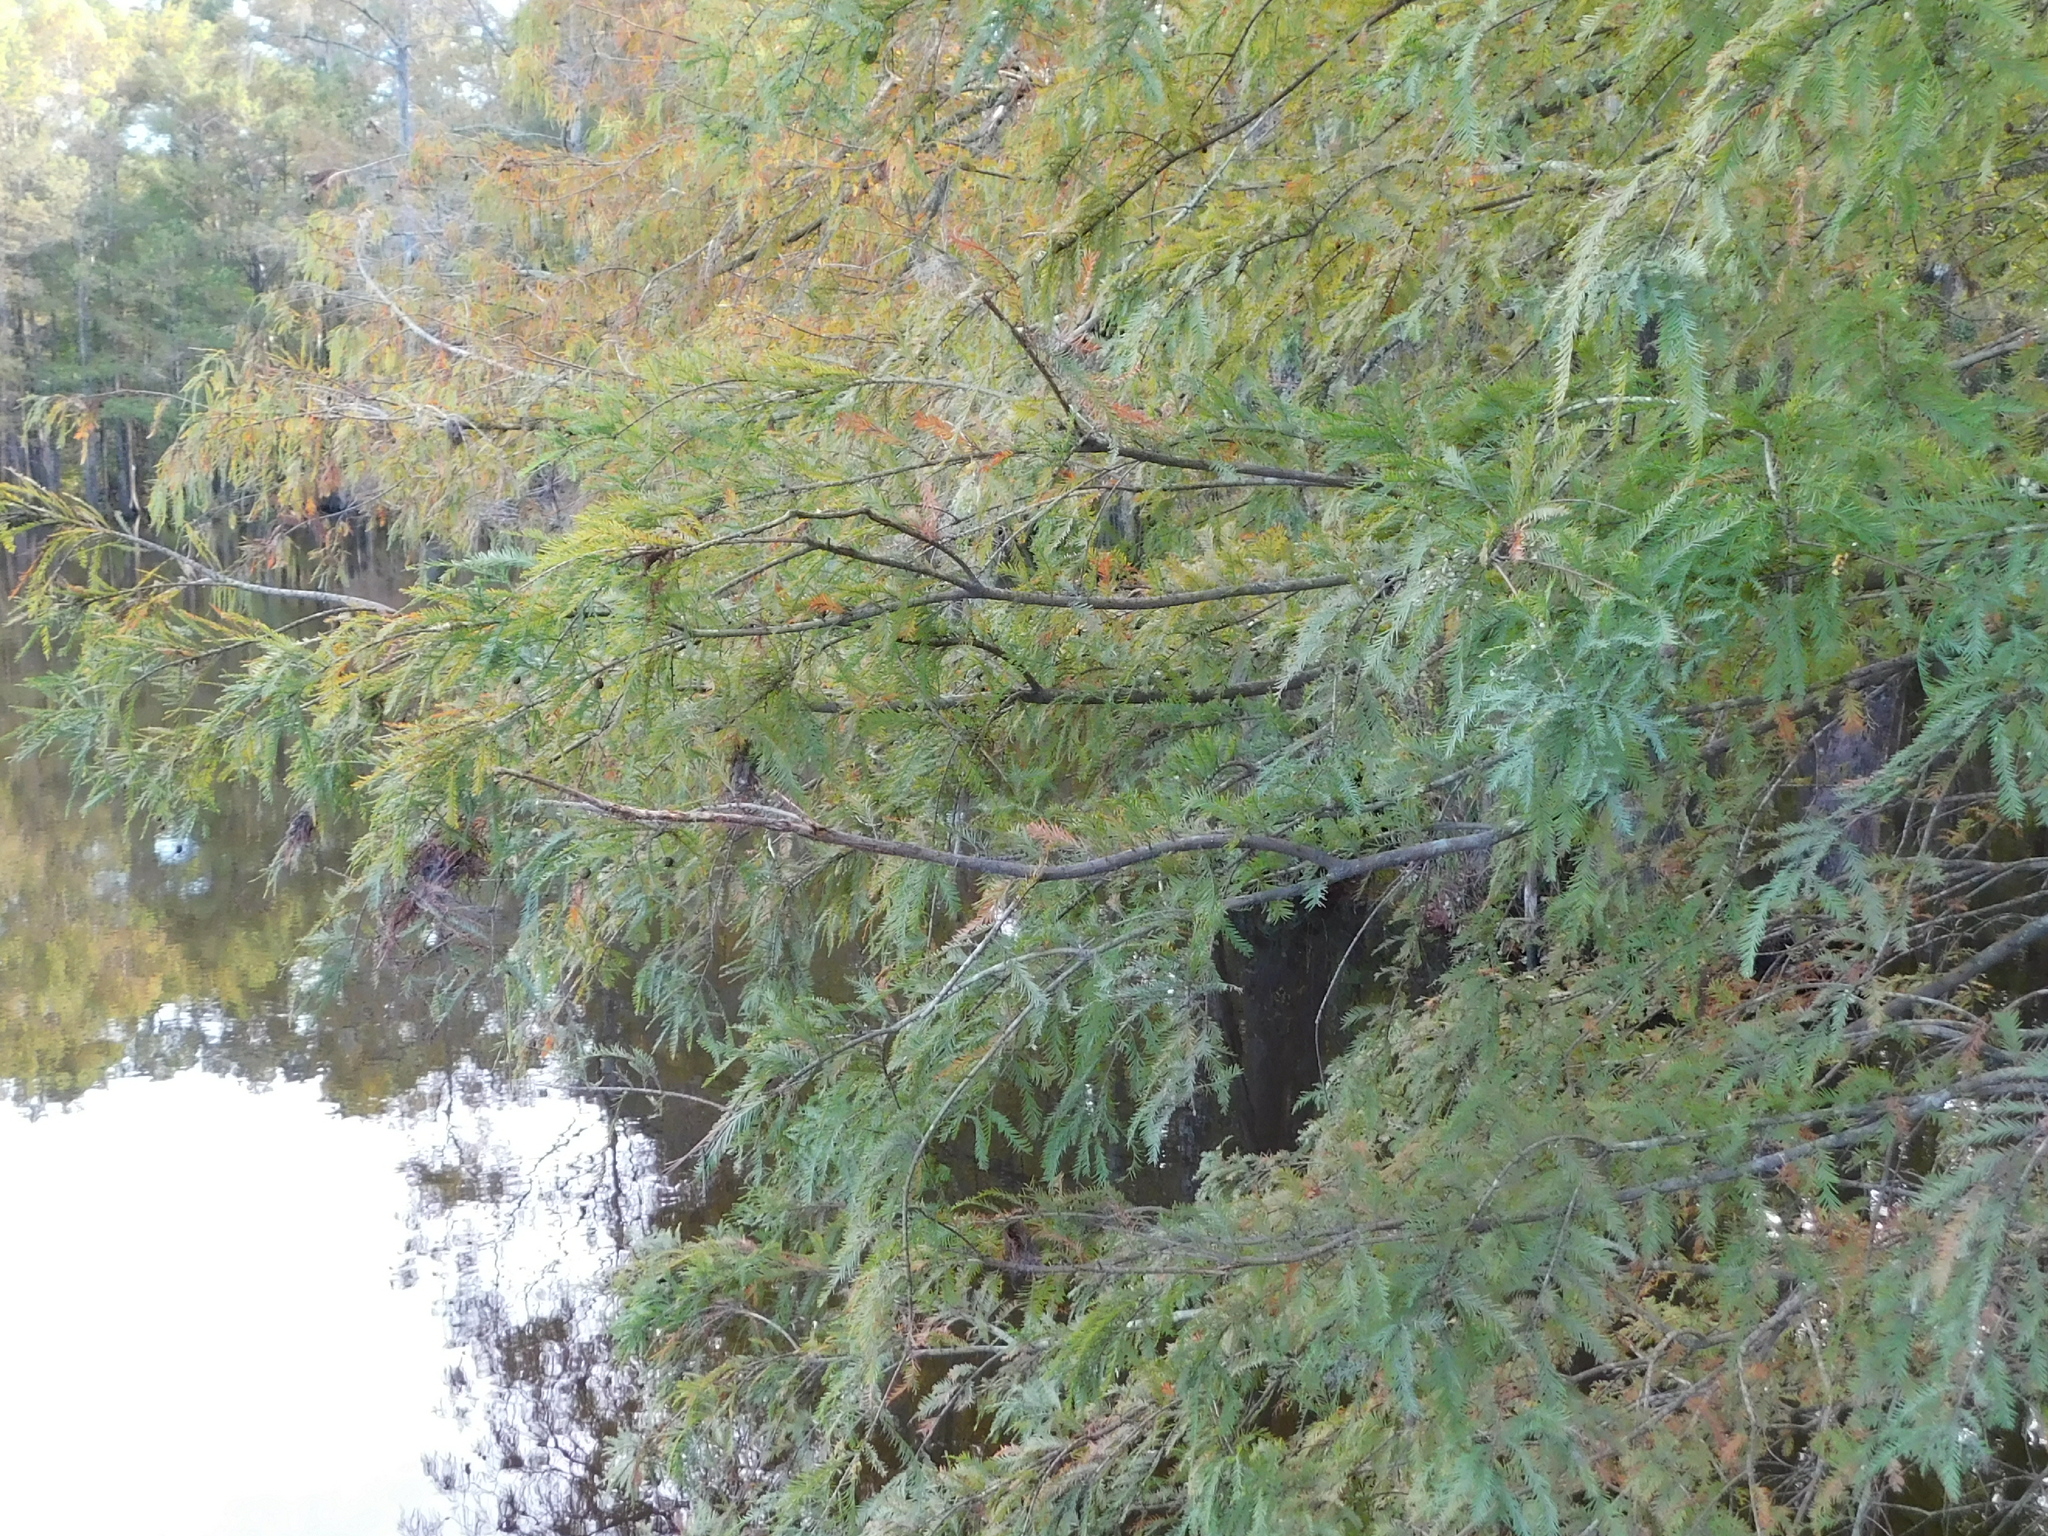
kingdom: Plantae
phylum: Tracheophyta
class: Pinopsida
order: Pinales
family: Cupressaceae
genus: Taxodium
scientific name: Taxodium distichum
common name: Bald cypress
